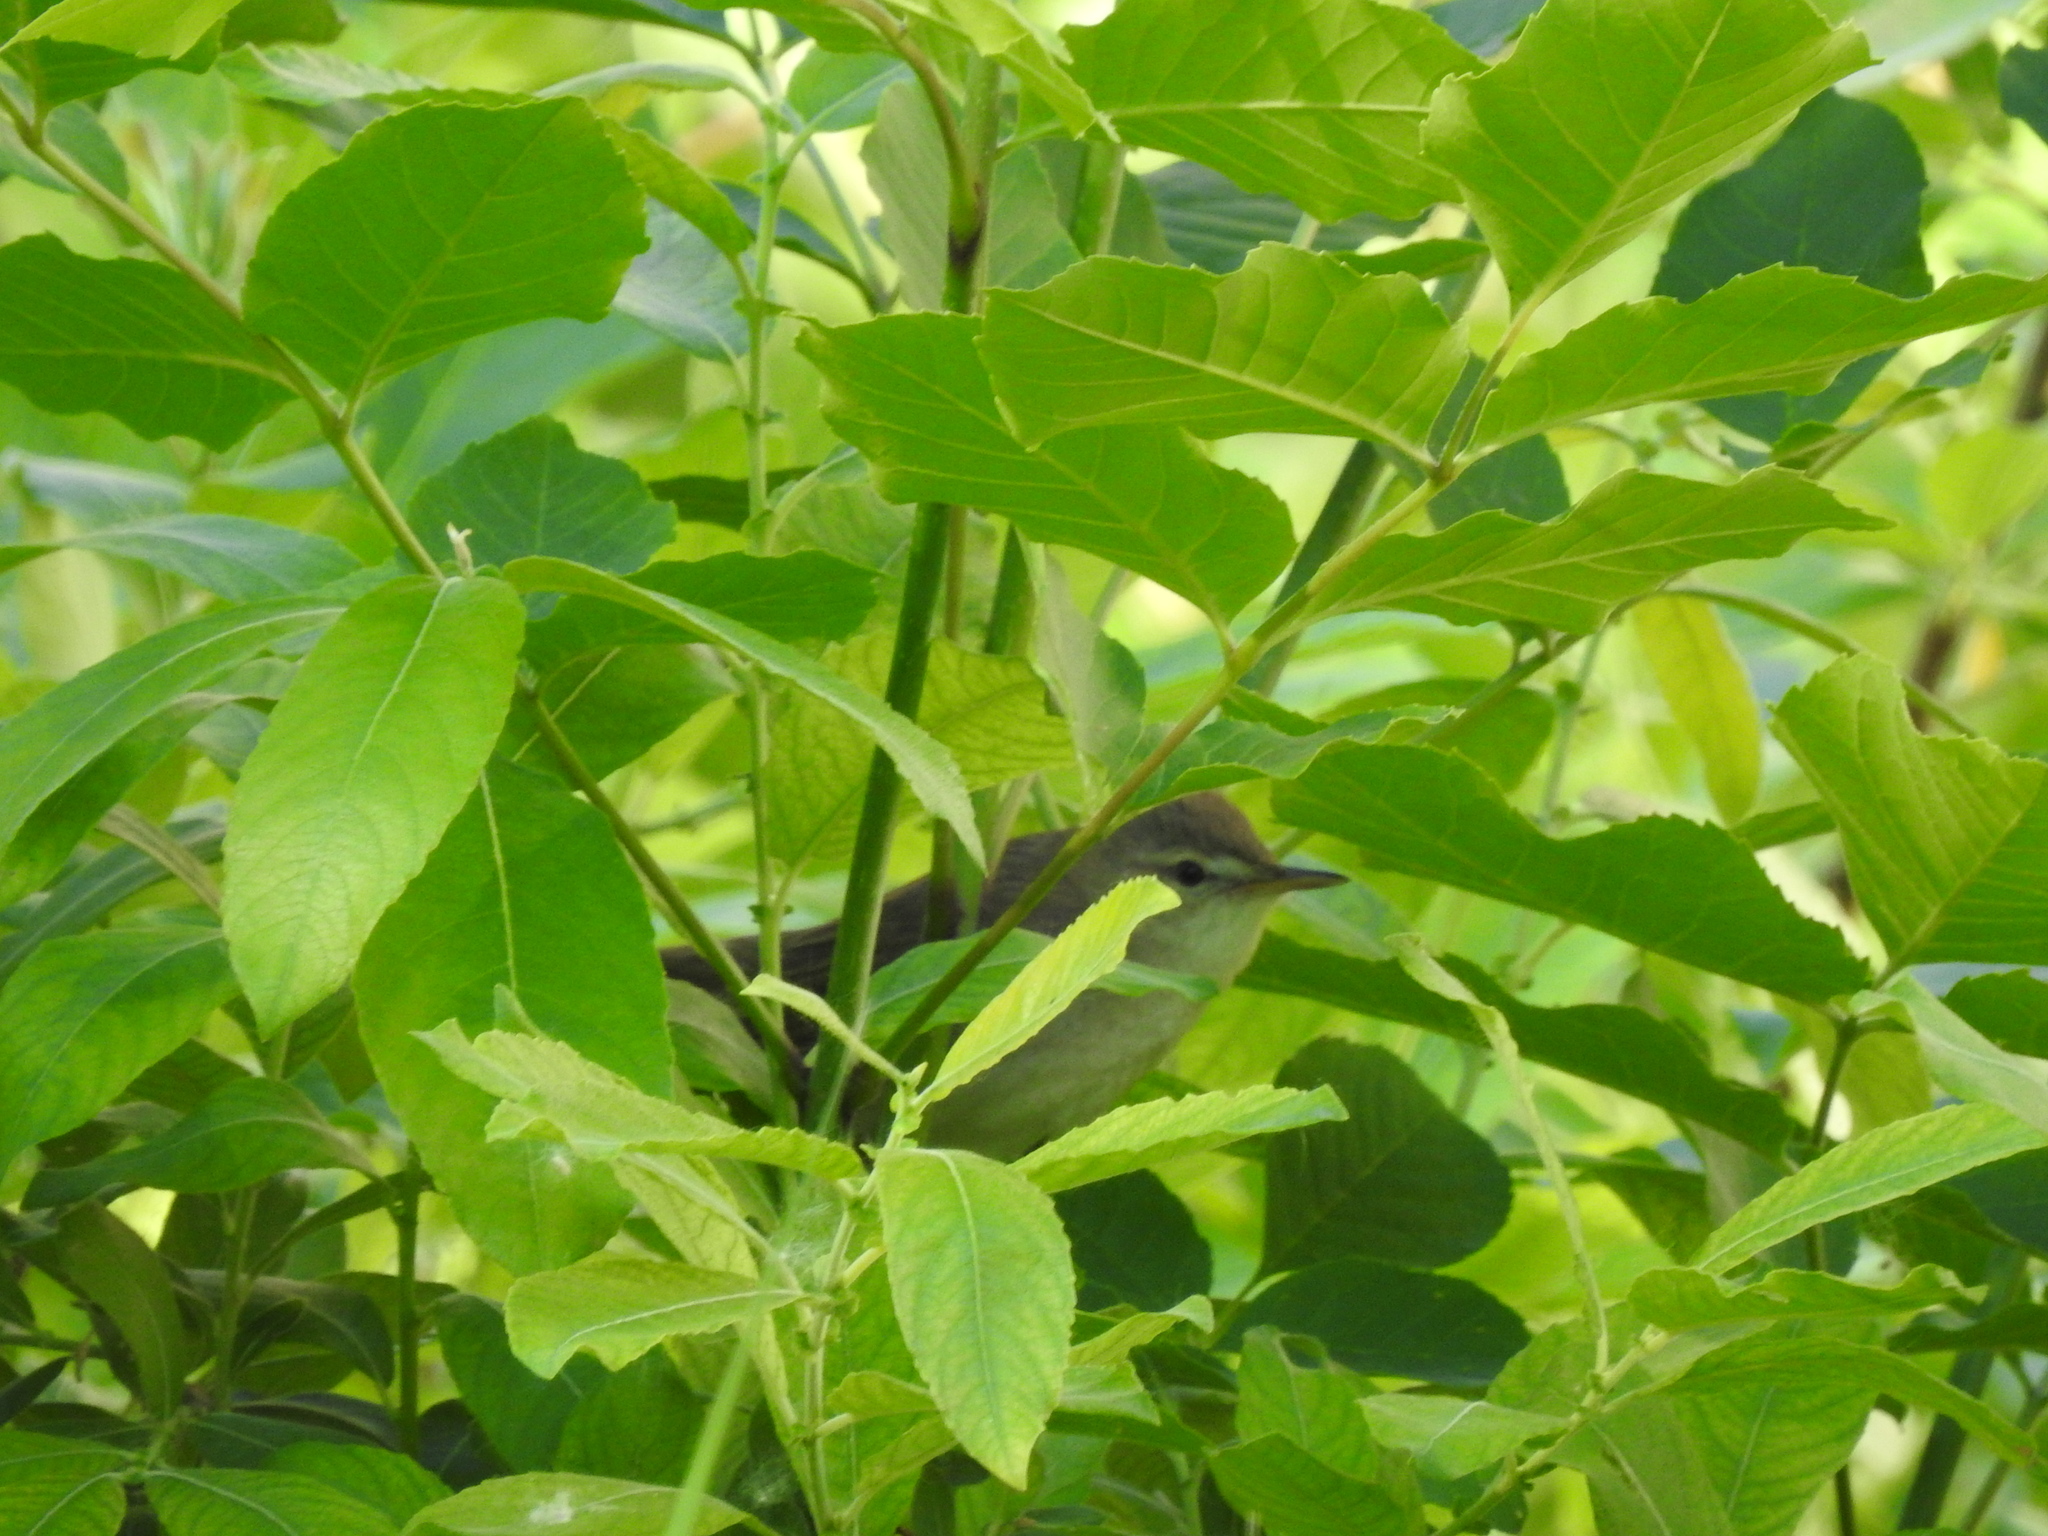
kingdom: Animalia
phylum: Chordata
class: Aves
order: Passeriformes
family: Acrocephalidae
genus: Acrocephalus
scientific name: Acrocephalus dumetorum
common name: Blyth's reed warbler
